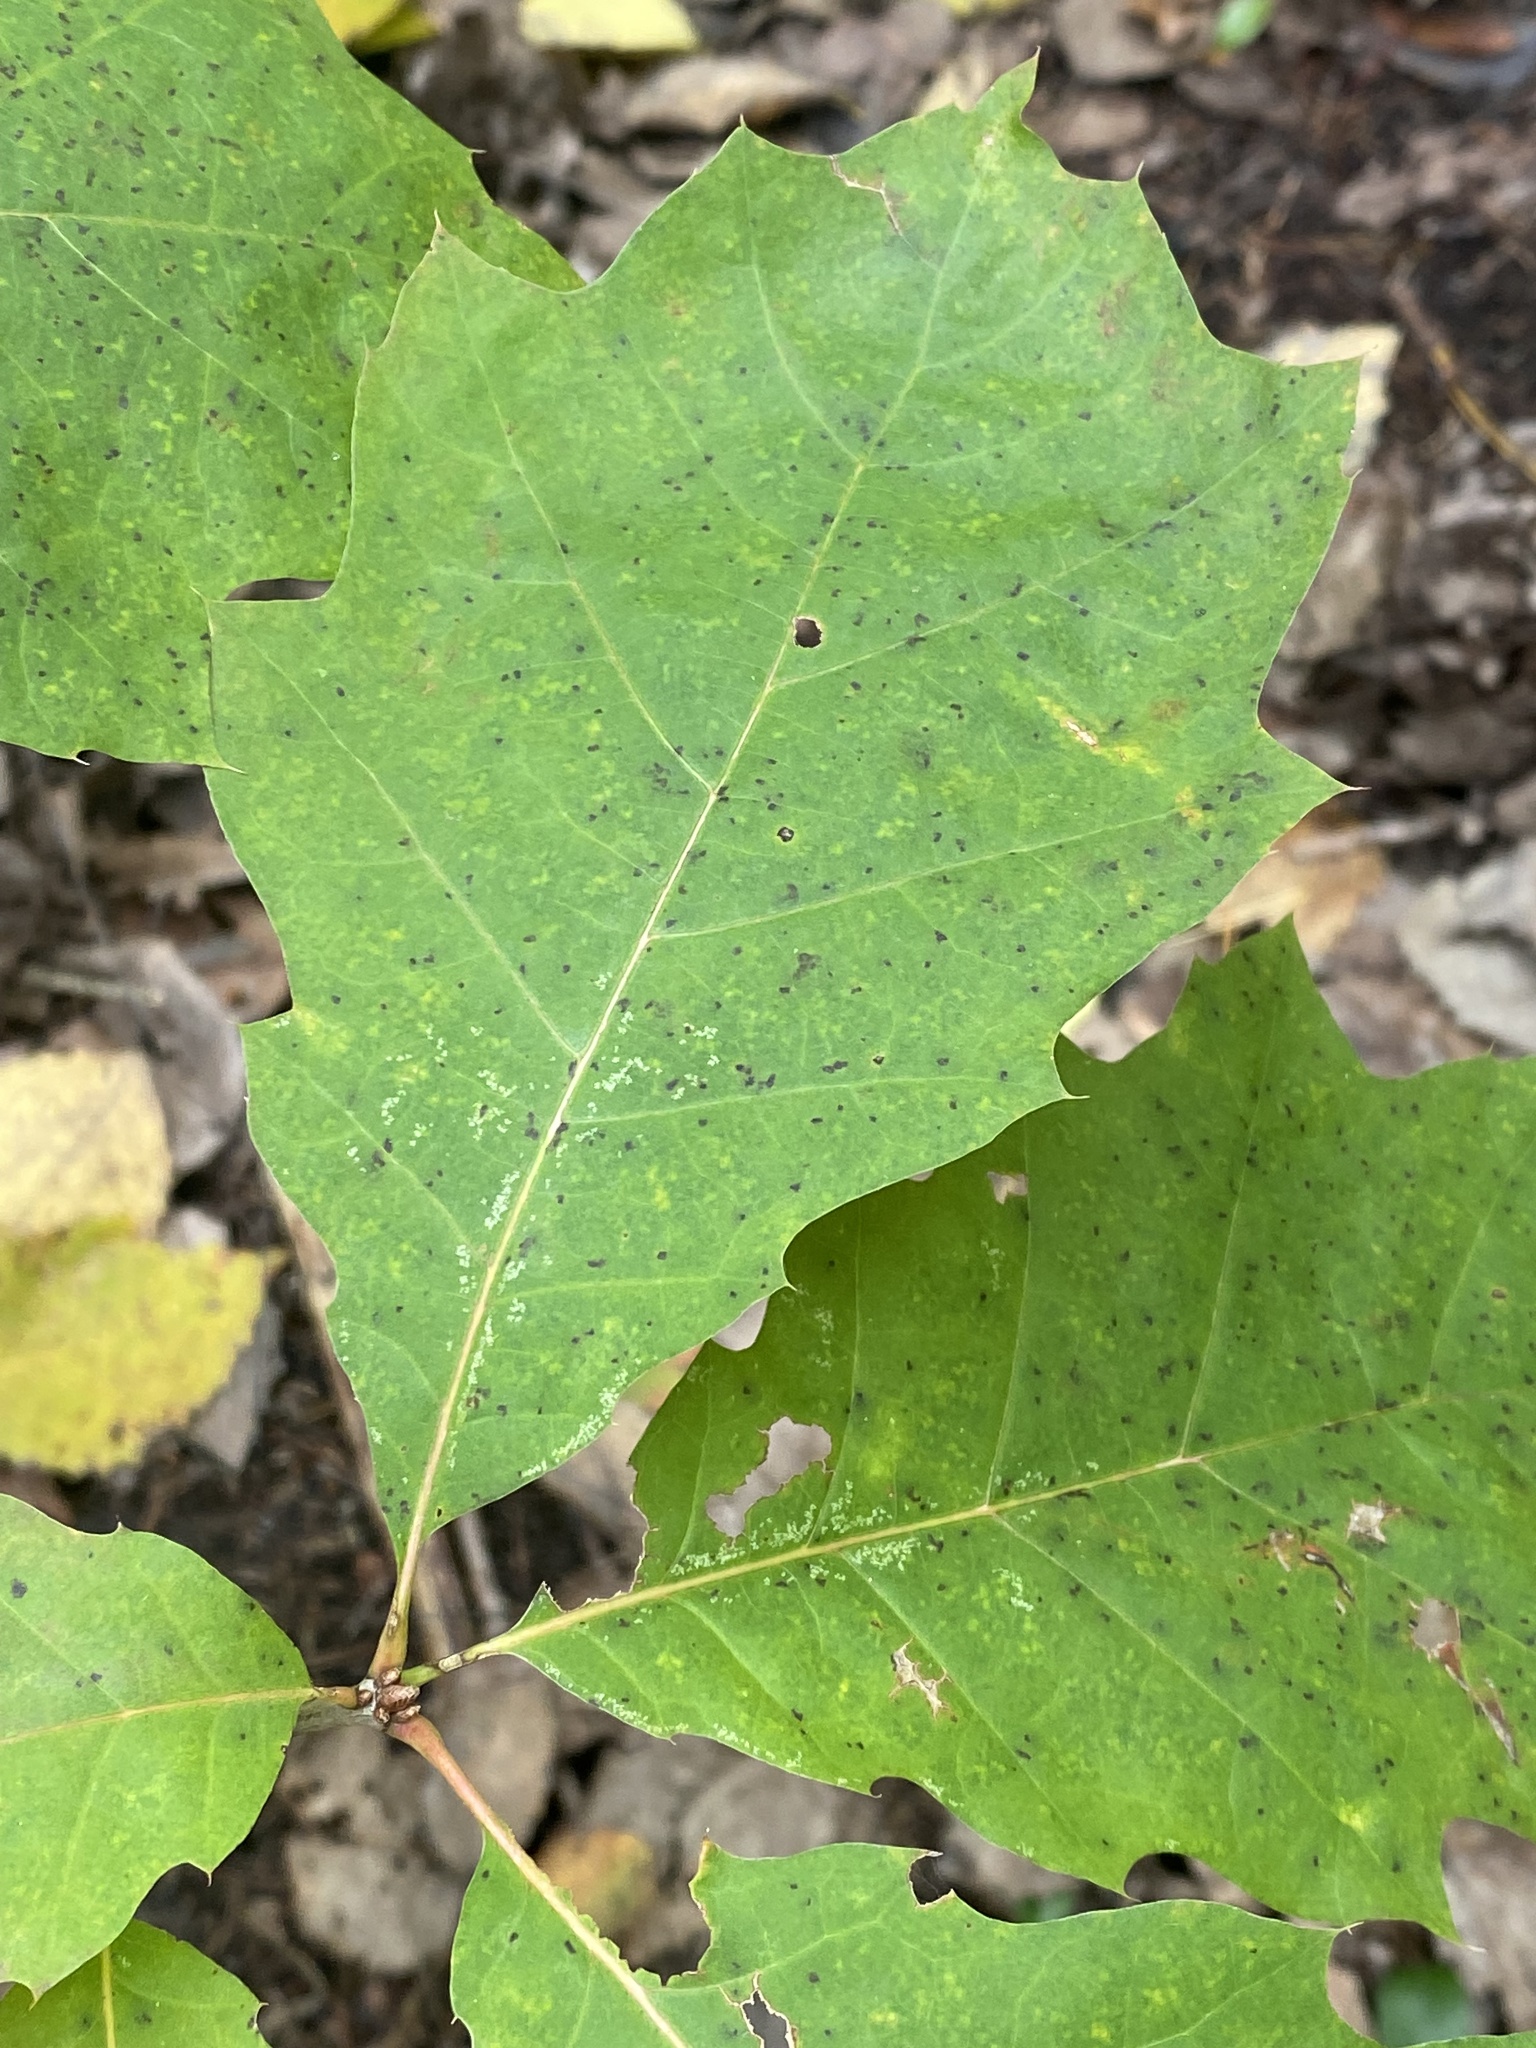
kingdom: Plantae
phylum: Tracheophyta
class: Magnoliopsida
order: Fagales
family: Fagaceae
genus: Quercus
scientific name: Quercus rubra
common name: Red oak
